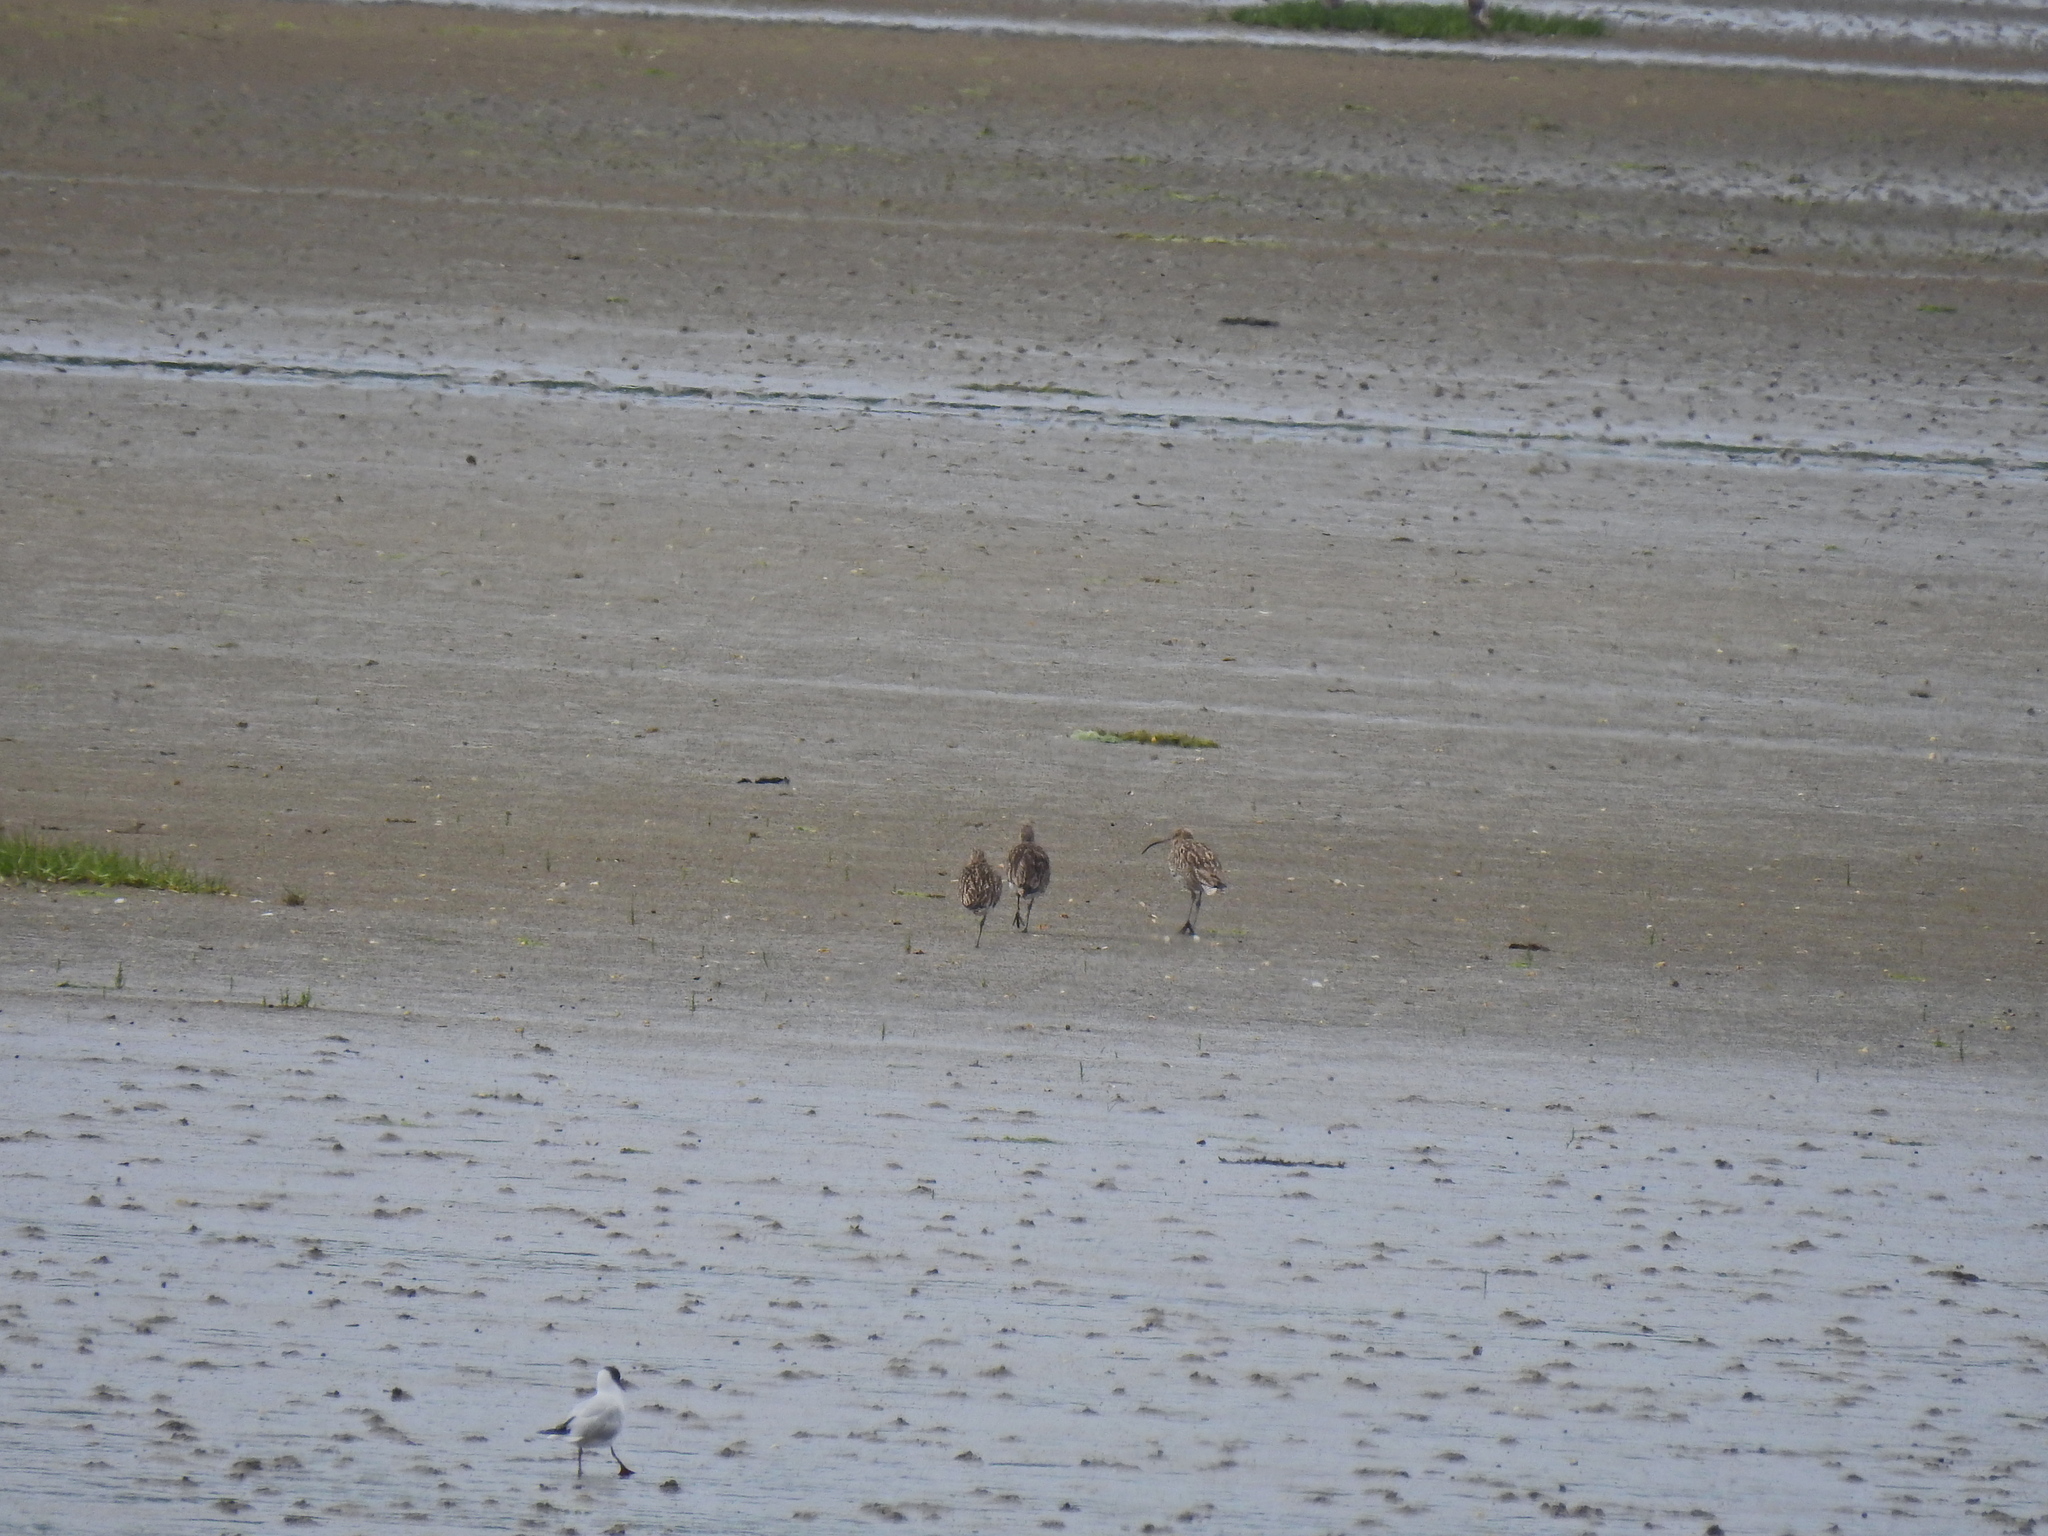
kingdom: Animalia
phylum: Chordata
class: Aves
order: Charadriiformes
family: Scolopacidae
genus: Numenius
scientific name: Numenius arquata
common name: Eurasian curlew
